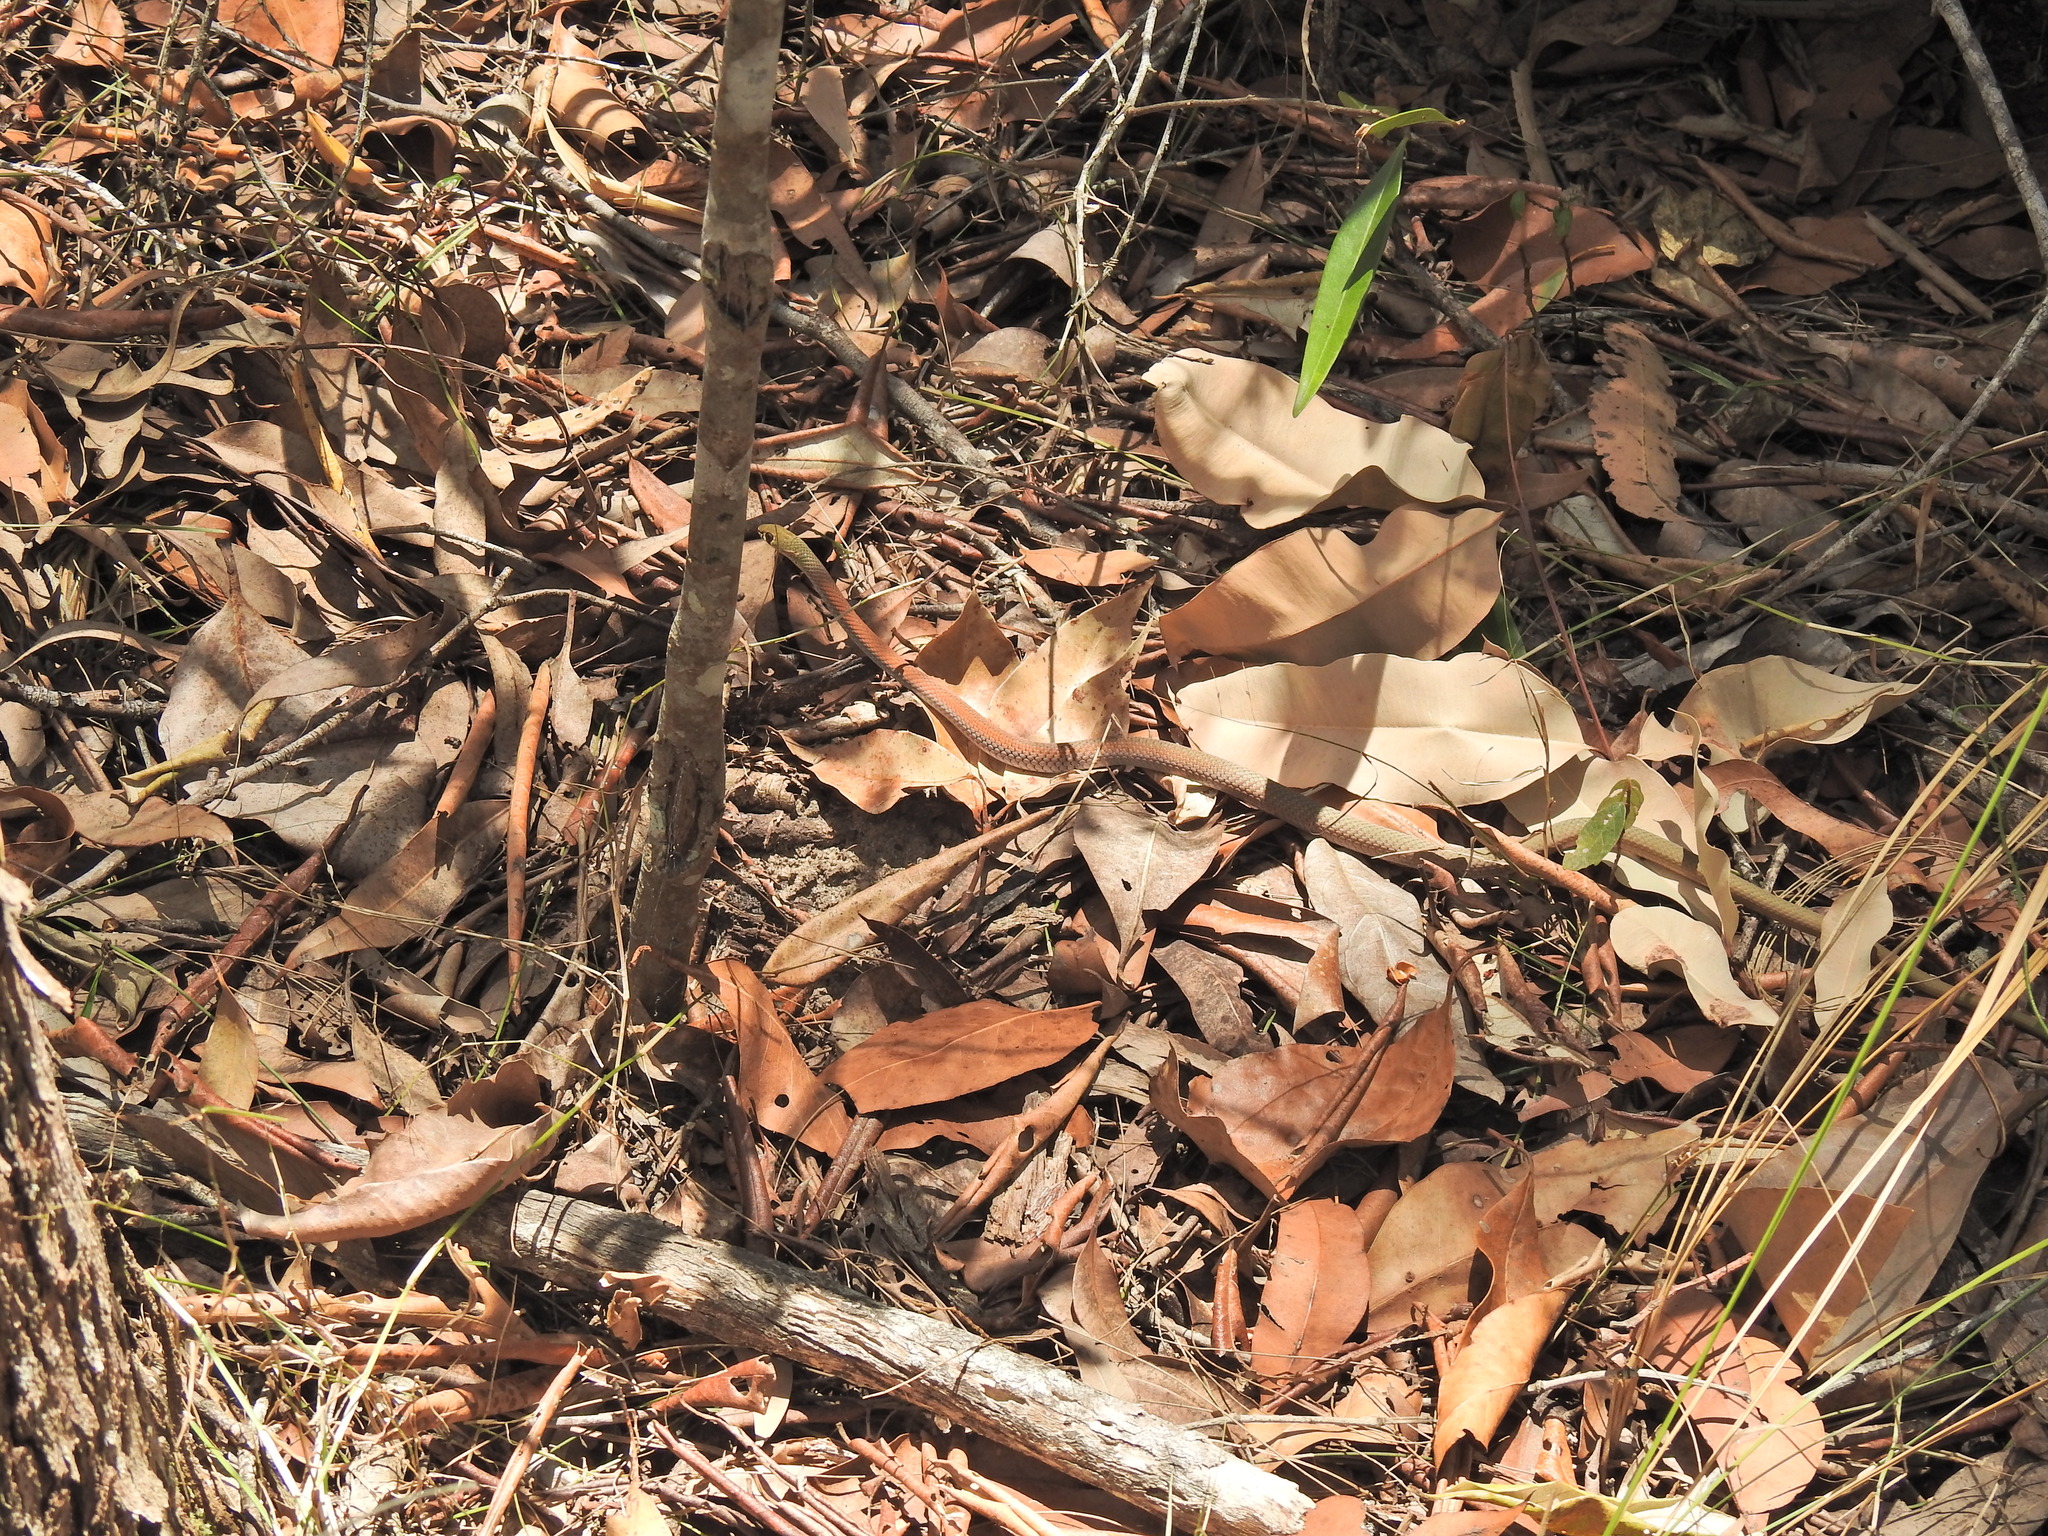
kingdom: Animalia
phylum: Chordata
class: Squamata
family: Elapidae
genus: Demansia
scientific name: Demansia psammophis
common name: Yellow-faced whip snake
